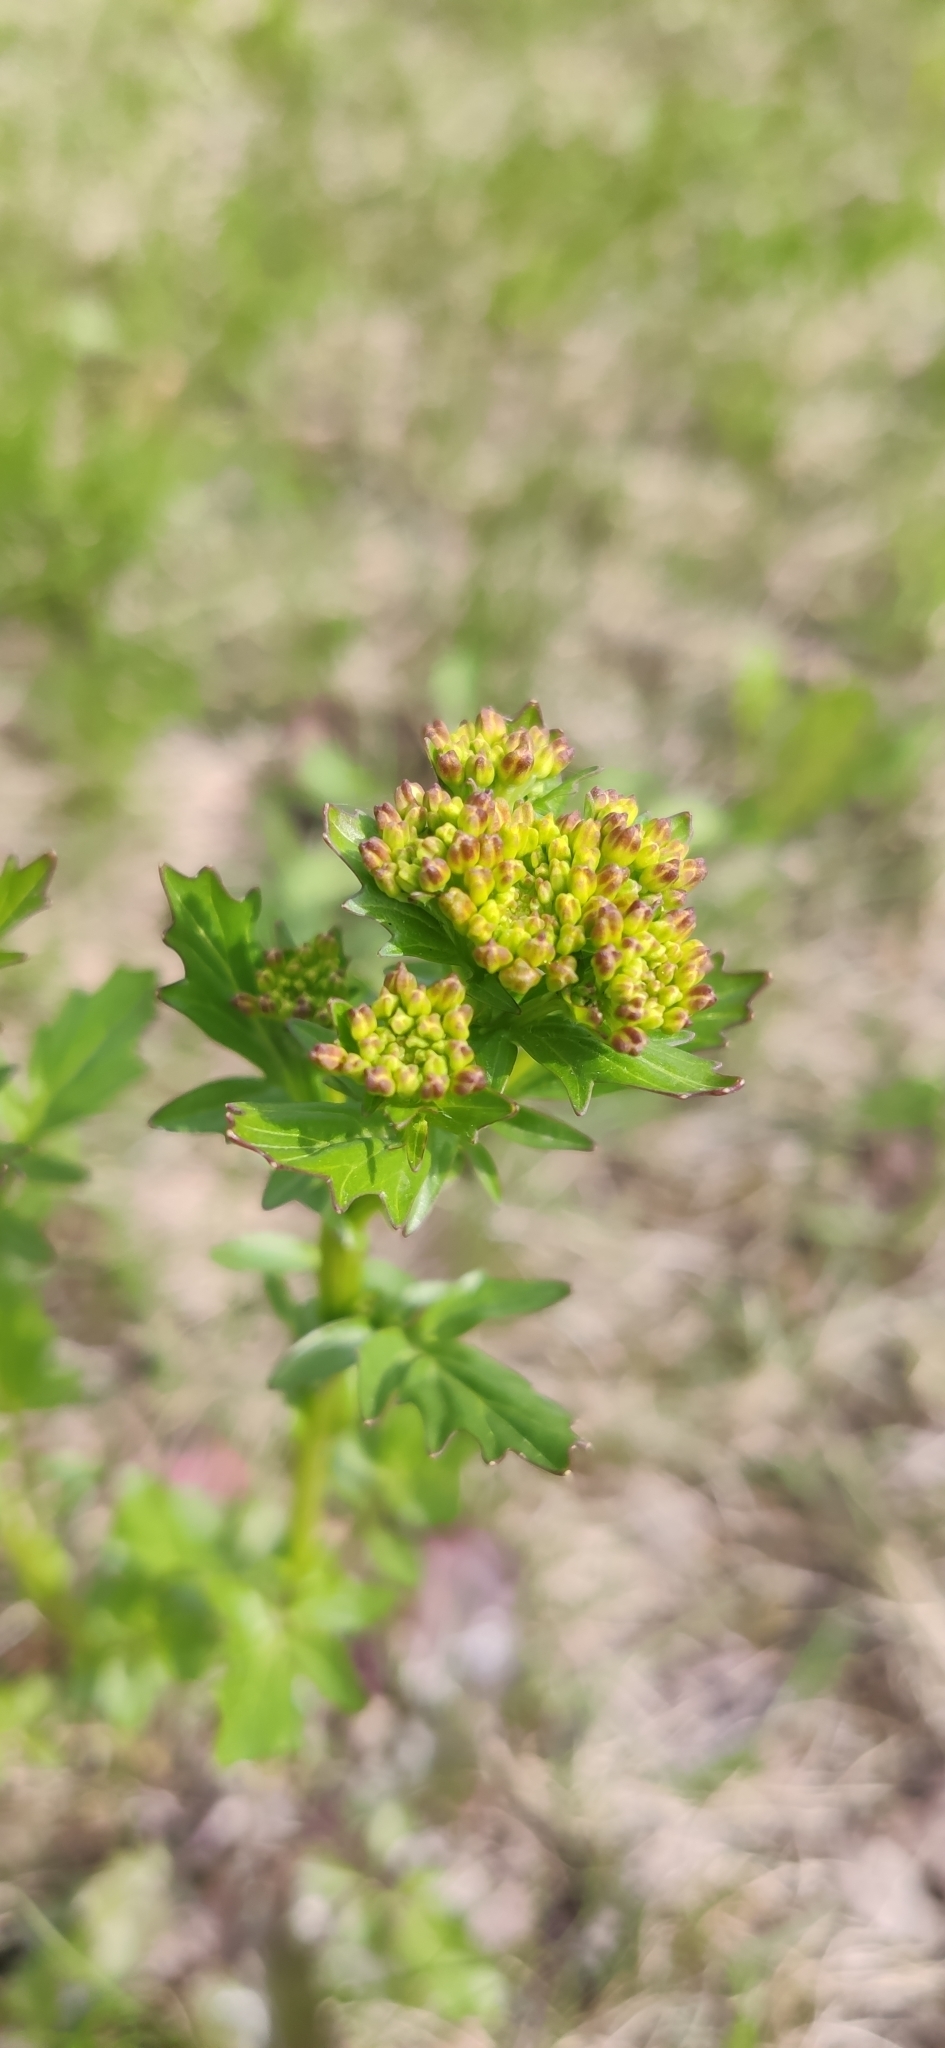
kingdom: Plantae
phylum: Tracheophyta
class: Magnoliopsida
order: Brassicales
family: Brassicaceae
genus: Barbarea
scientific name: Barbarea vulgaris
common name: Cressy-greens
